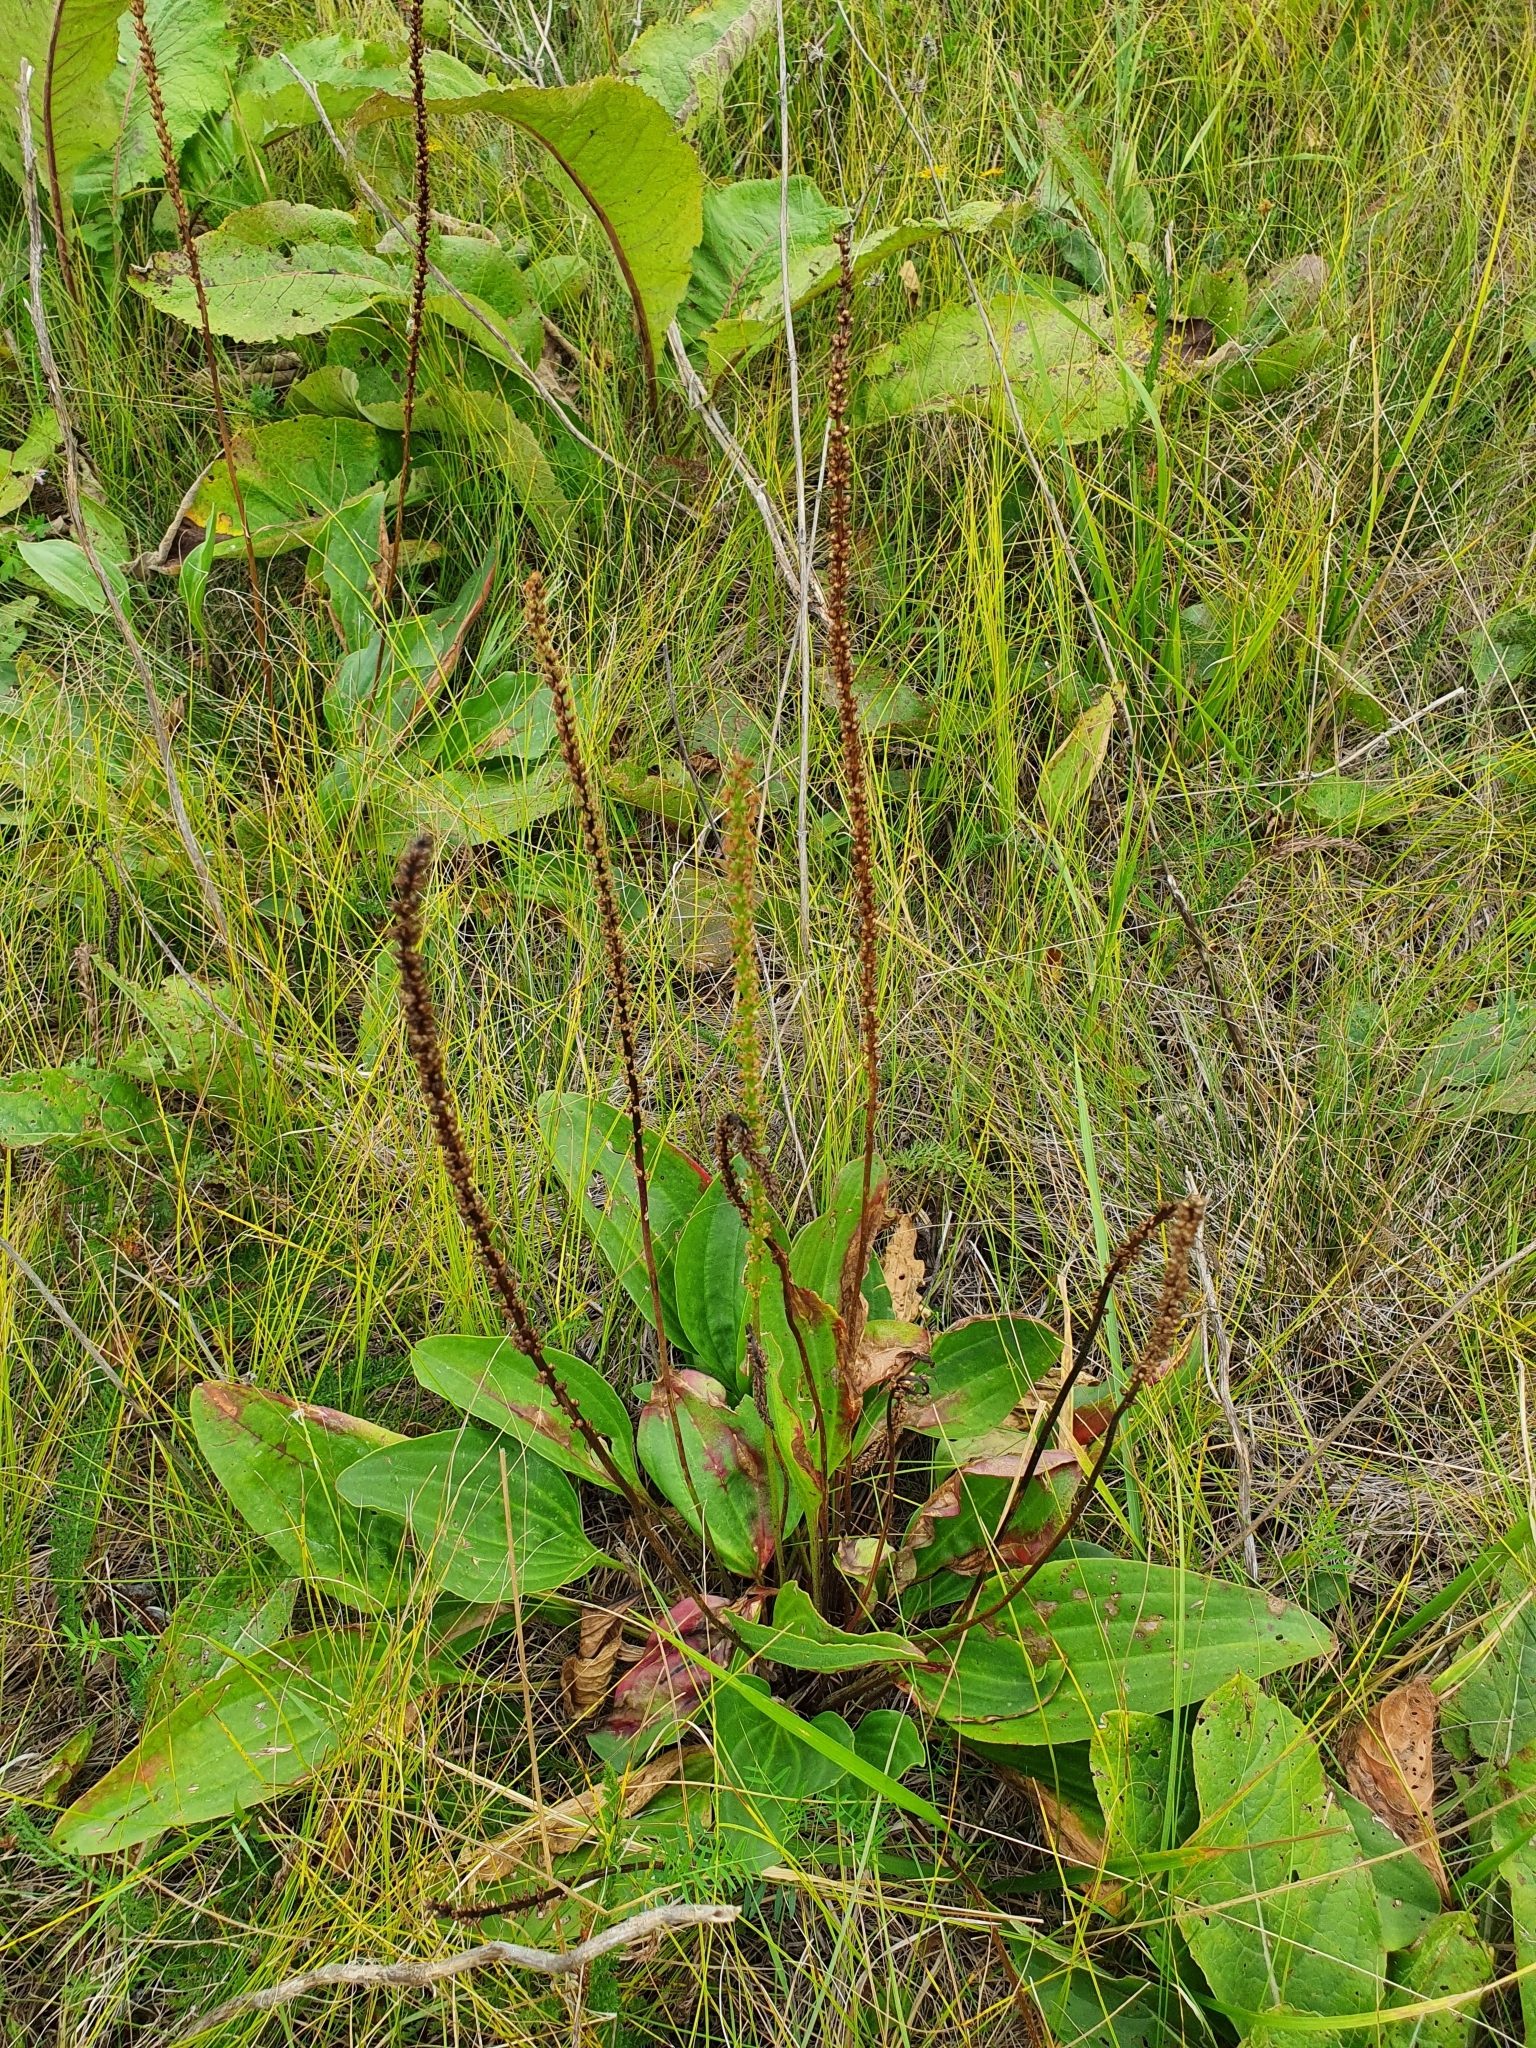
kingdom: Plantae
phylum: Tracheophyta
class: Magnoliopsida
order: Lamiales
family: Plantaginaceae
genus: Plantago
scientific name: Plantago cornuti
